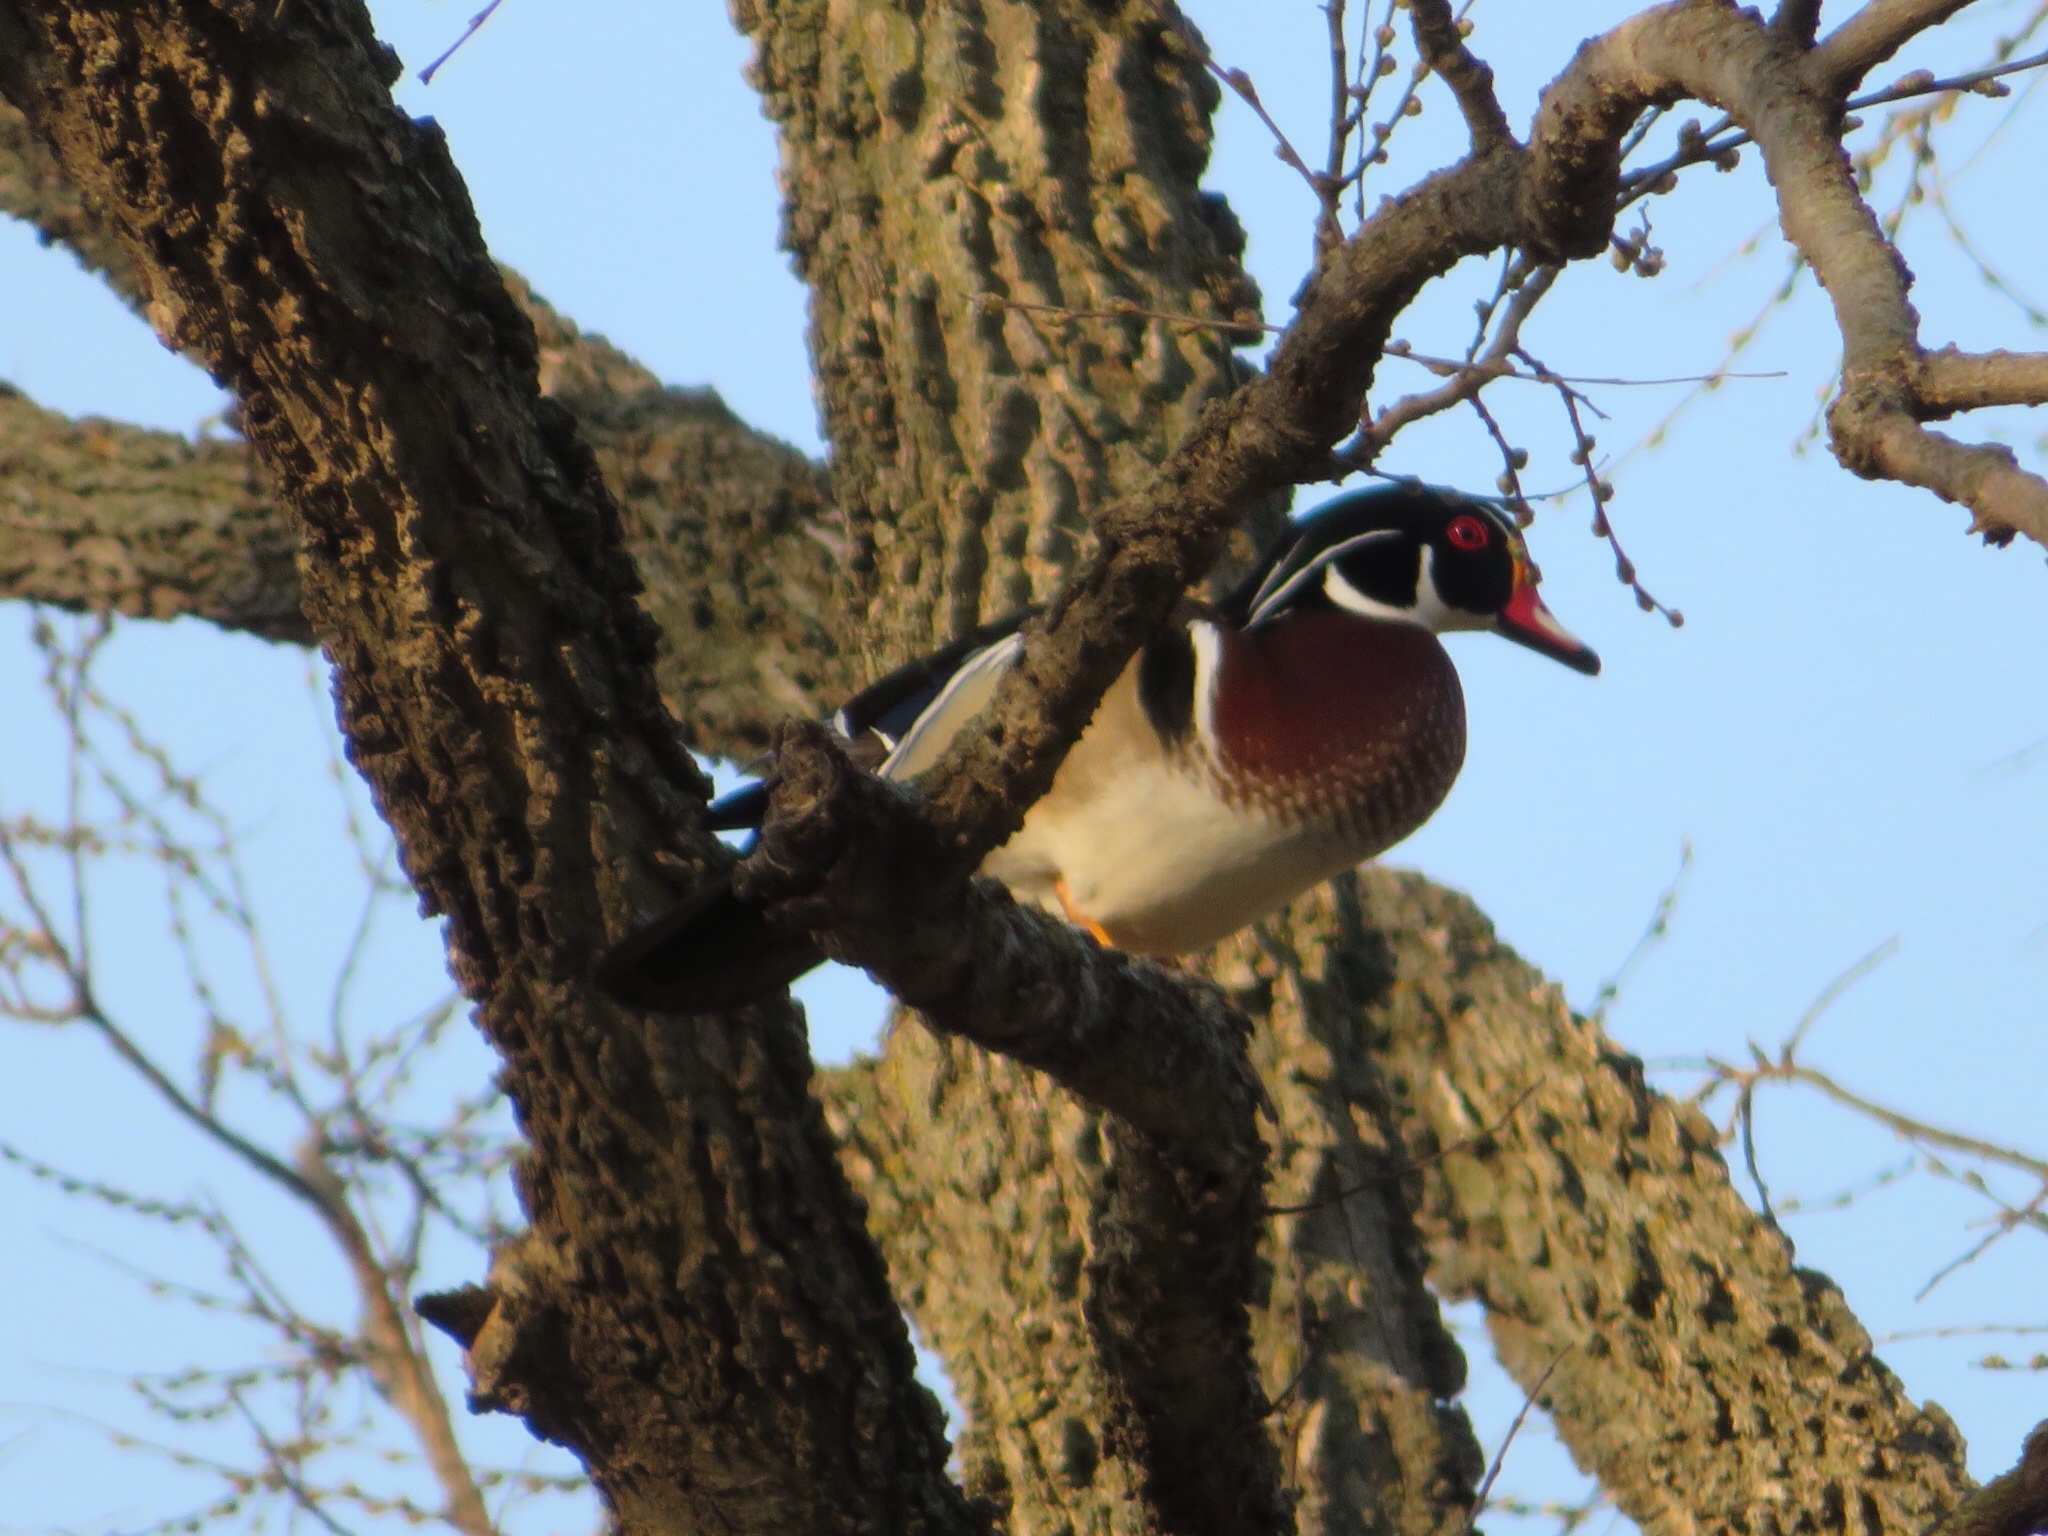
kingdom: Animalia
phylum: Chordata
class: Aves
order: Anseriformes
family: Anatidae
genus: Aix
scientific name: Aix sponsa
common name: Wood duck
